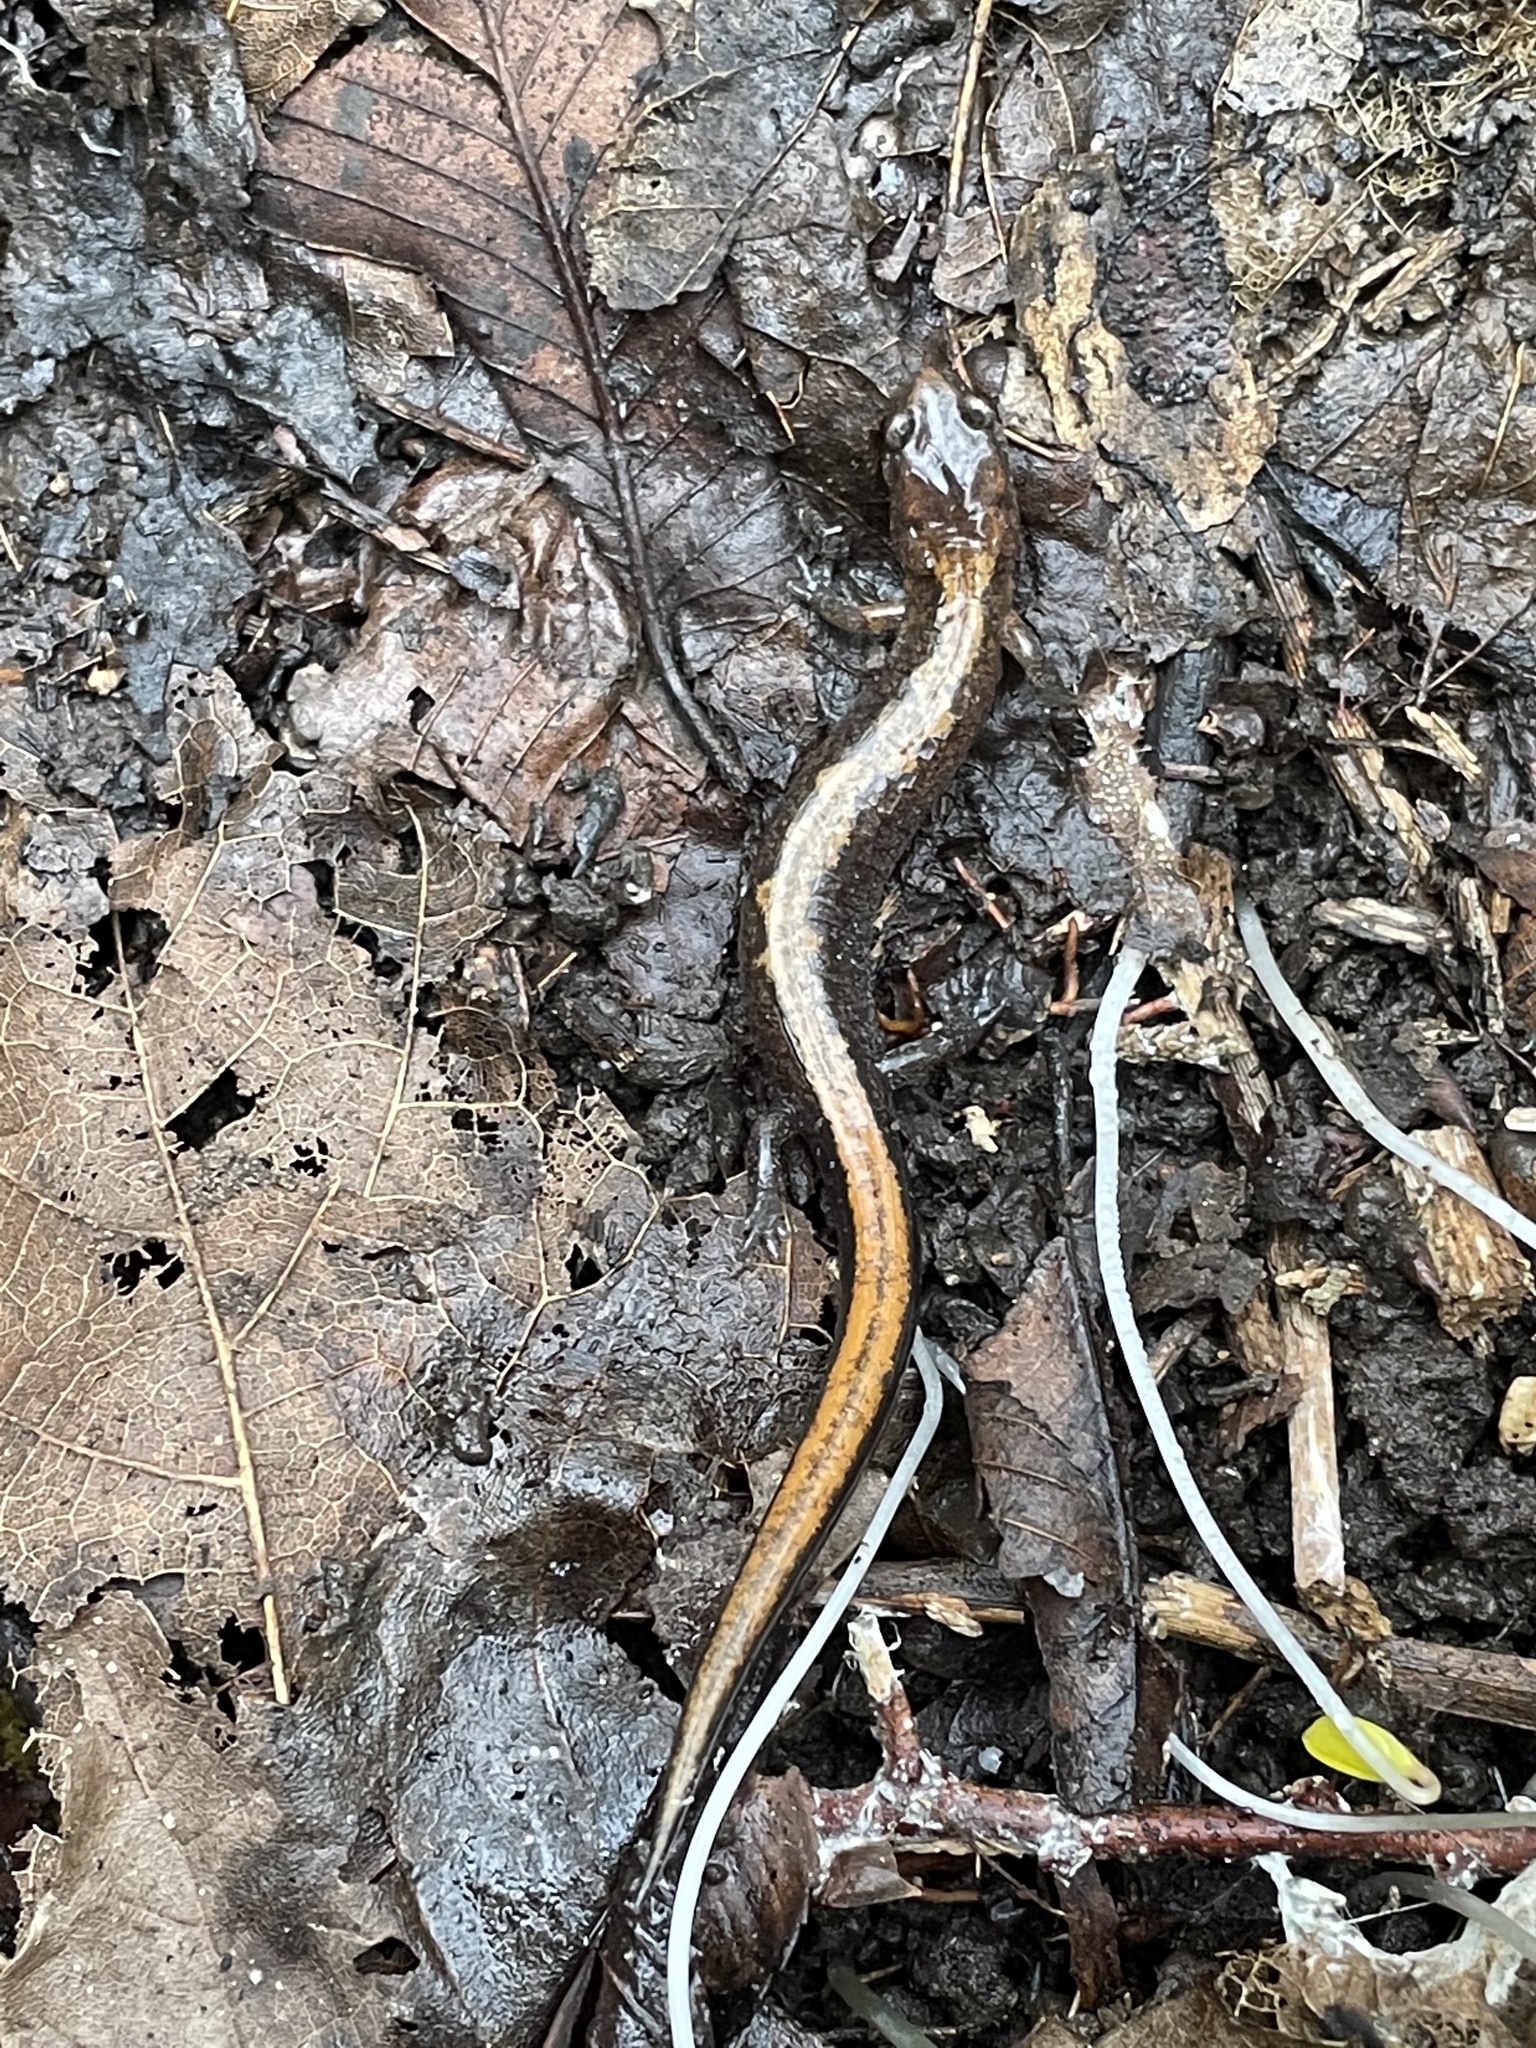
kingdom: Animalia
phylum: Chordata
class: Amphibia
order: Caudata
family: Plethodontidae
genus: Plethodon
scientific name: Plethodon dorsalis
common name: Northern zigzag salamander
